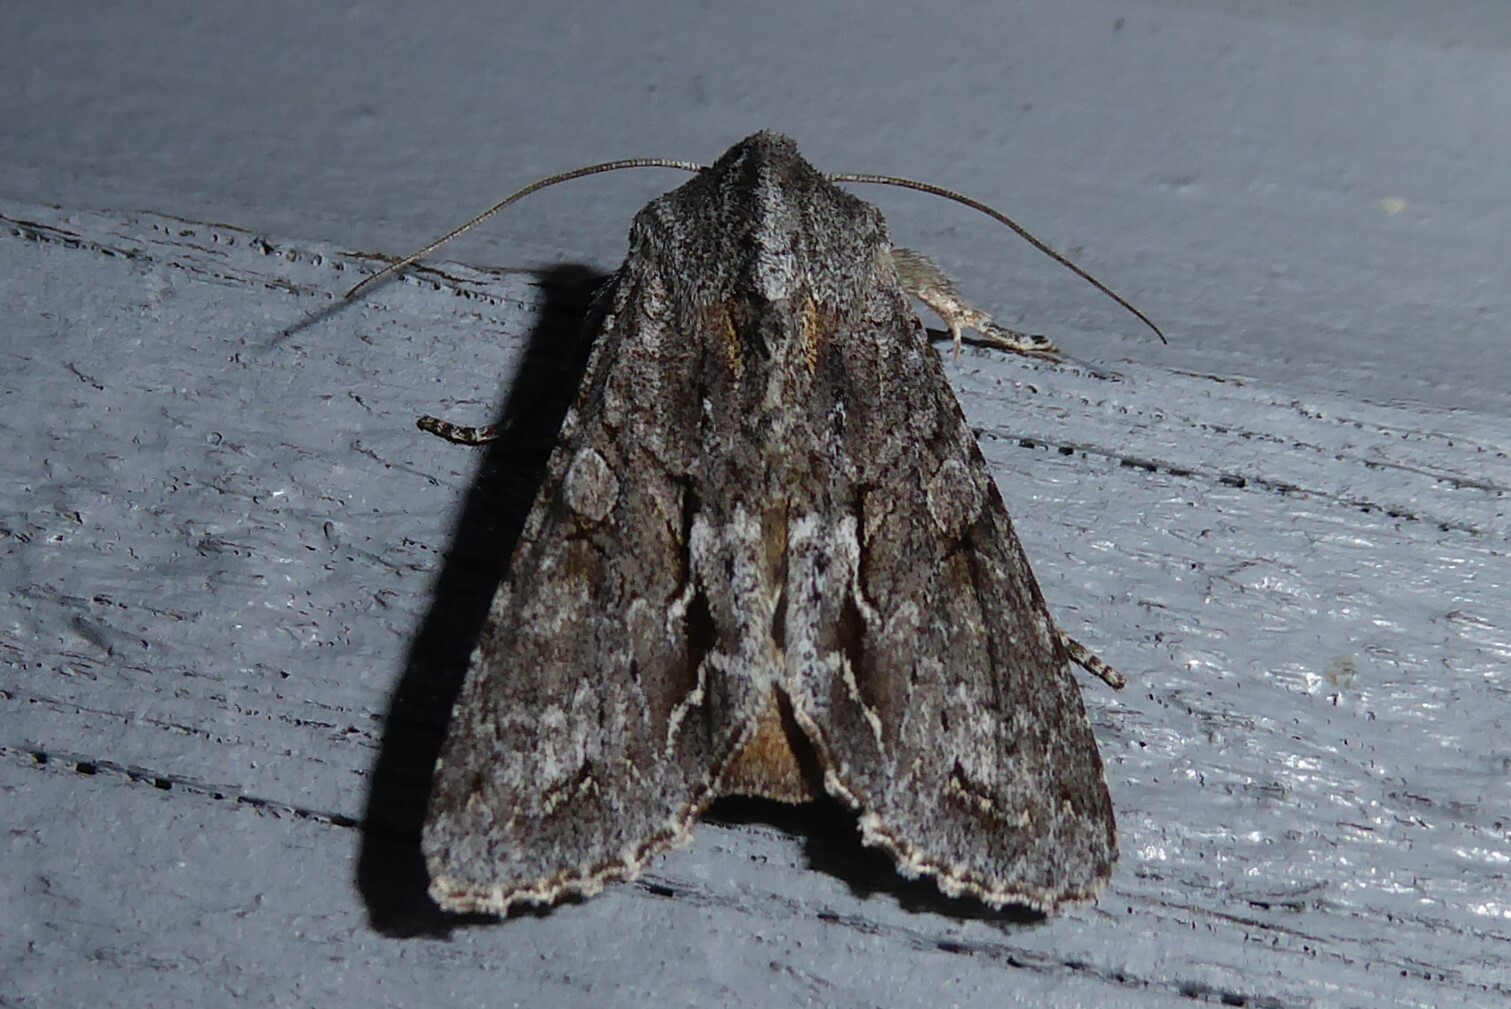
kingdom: Animalia
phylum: Arthropoda
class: Insecta
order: Lepidoptera
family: Noctuidae
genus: Ichneutica
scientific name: Ichneutica
